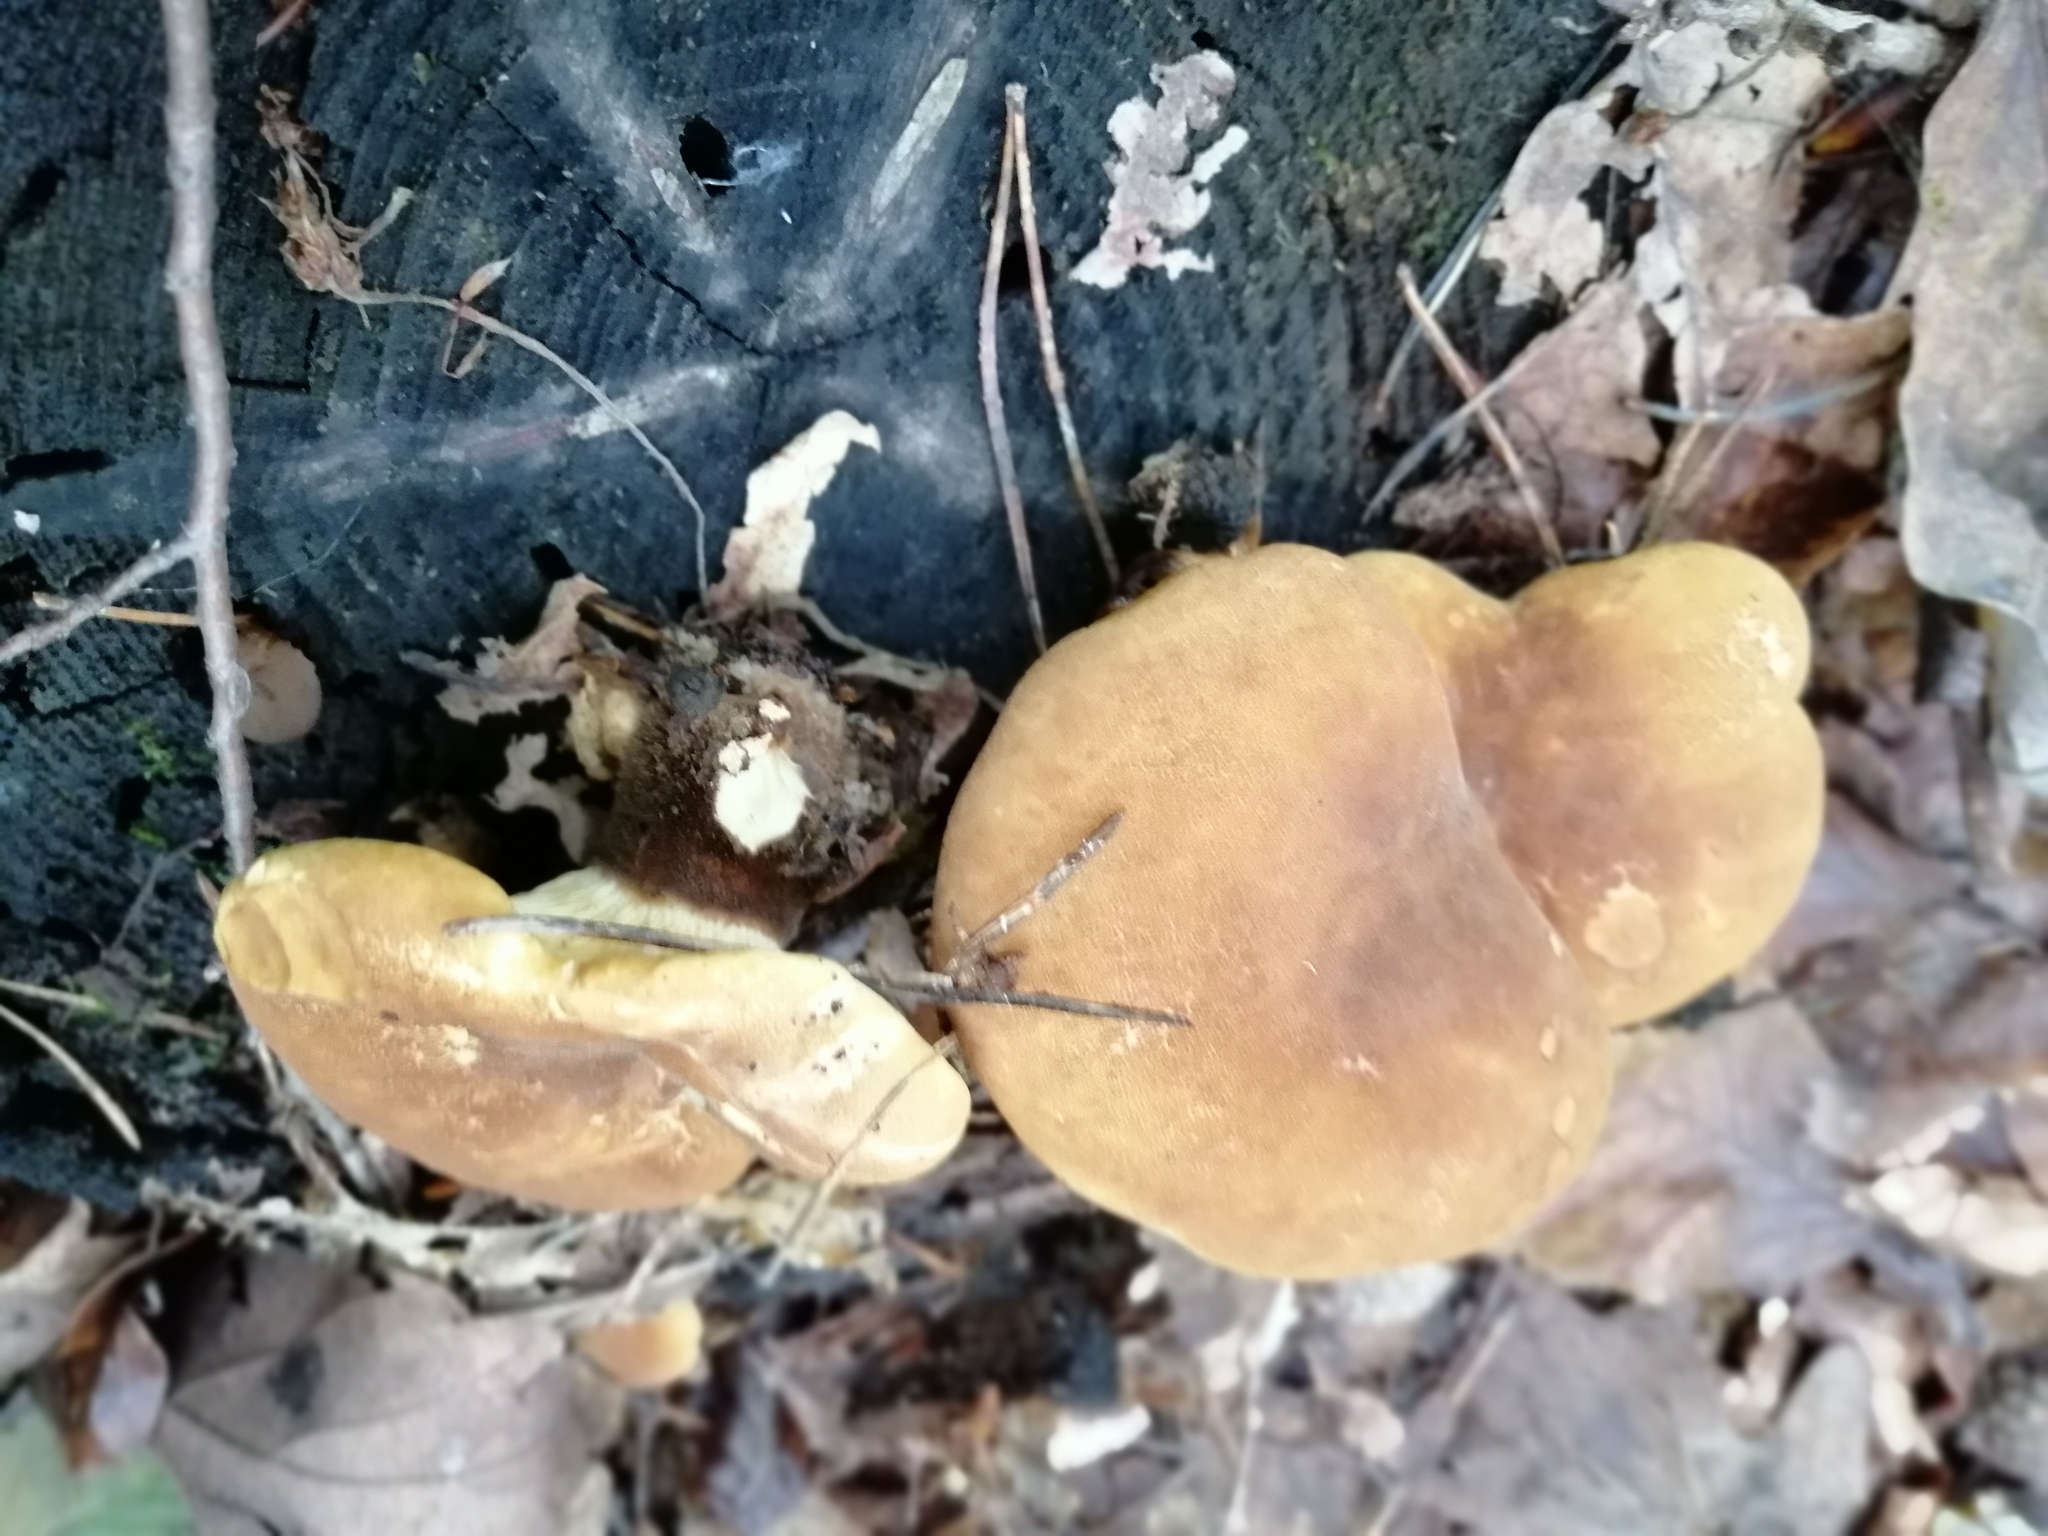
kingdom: Fungi
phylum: Basidiomycota
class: Agaricomycetes
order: Boletales
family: Tapinellaceae
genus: Tapinella
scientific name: Tapinella atrotomentosa
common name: Velvet rollrim
